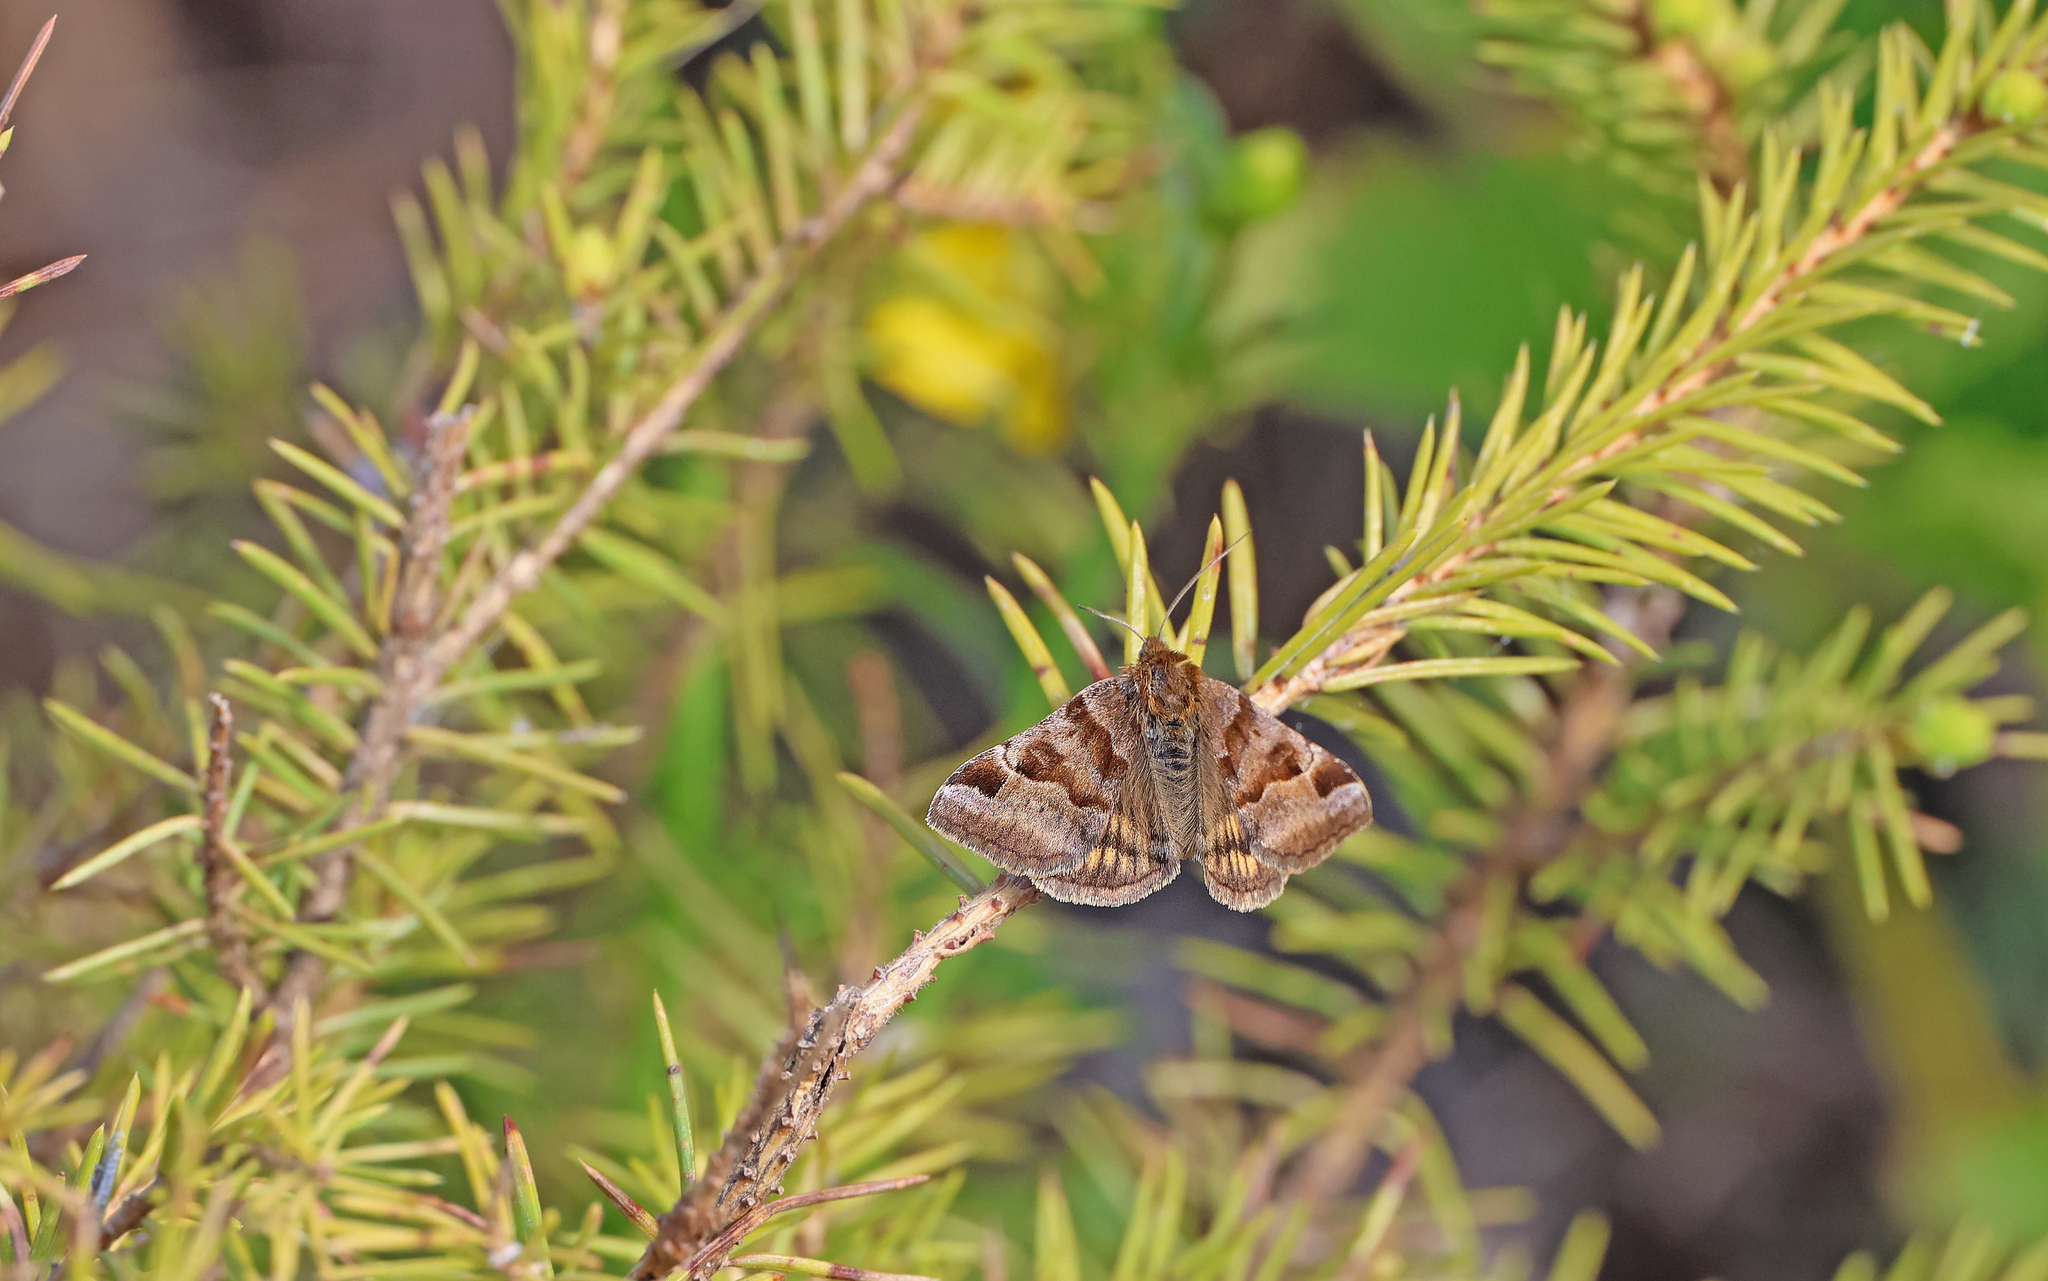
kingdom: Animalia
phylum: Arthropoda
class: Insecta
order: Lepidoptera
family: Erebidae
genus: Euclidia
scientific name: Euclidia glyphica
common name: Burnet companion
